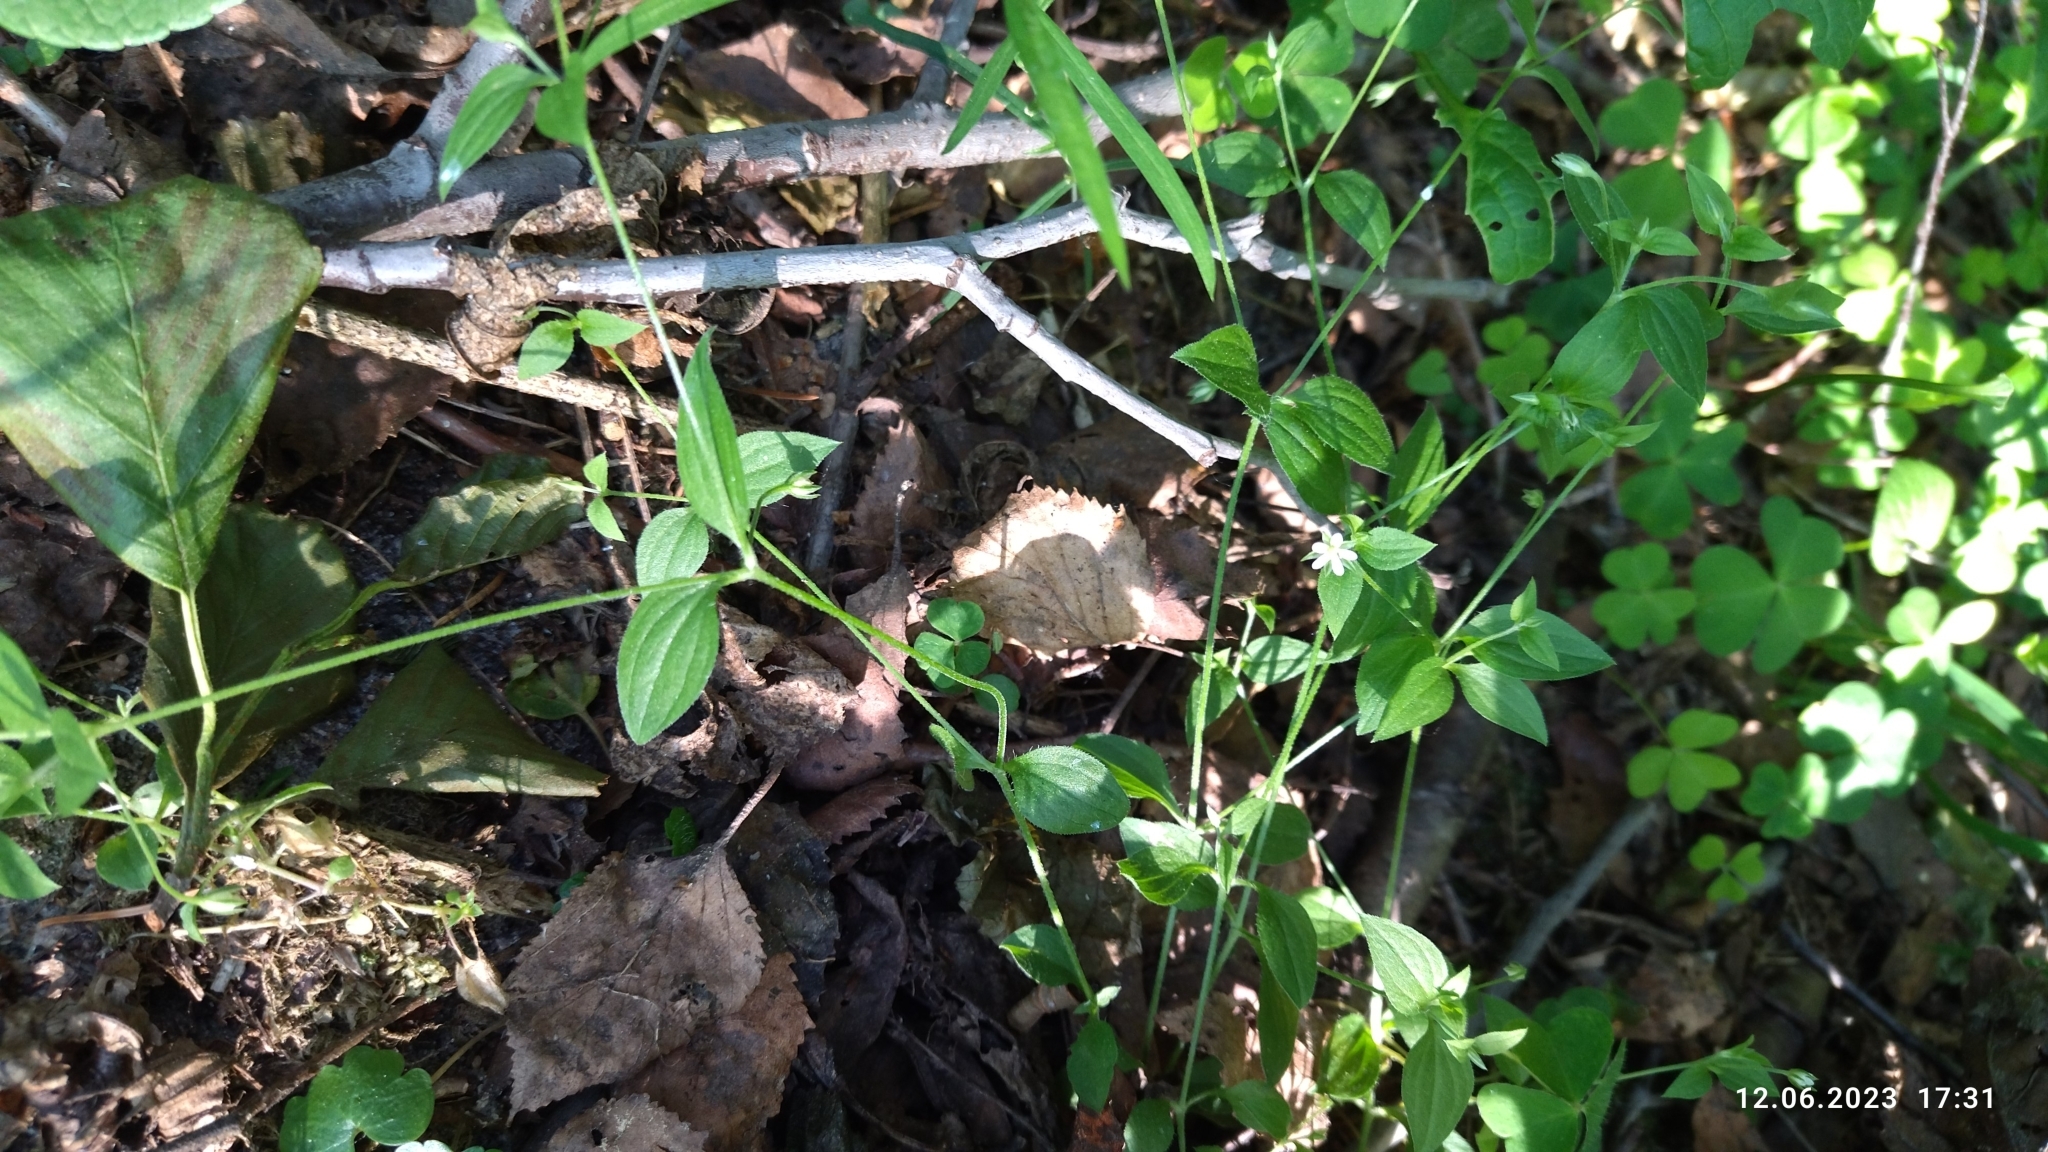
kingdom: Plantae
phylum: Tracheophyta
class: Magnoliopsida
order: Caryophyllales
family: Caryophyllaceae
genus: Moehringia
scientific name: Moehringia trinervia
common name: Three-nerved sandwort
